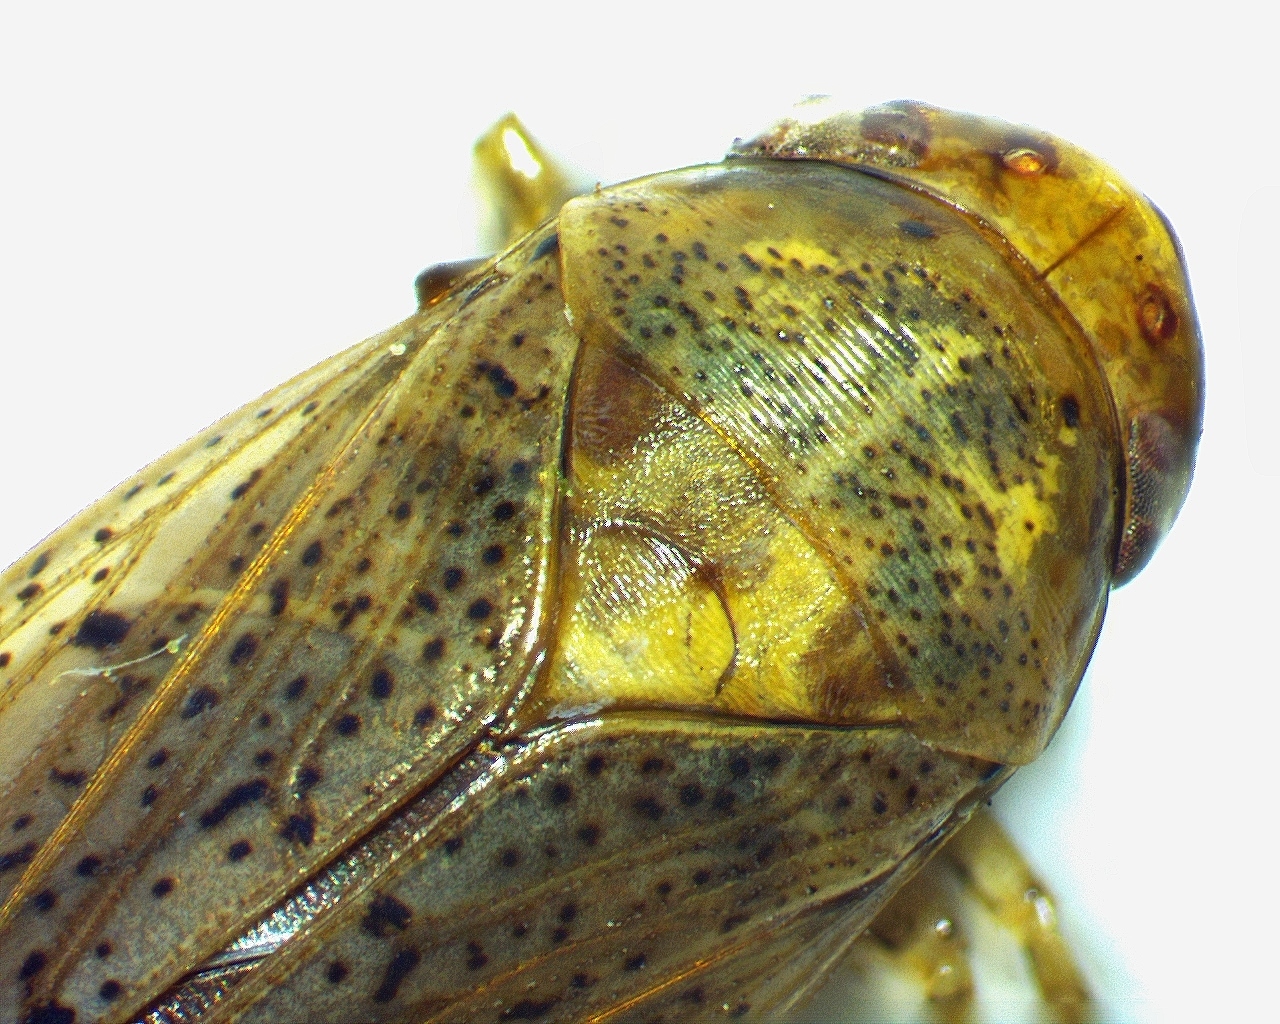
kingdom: Animalia
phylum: Arthropoda
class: Insecta
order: Hemiptera
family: Cicadellidae
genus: Ponana
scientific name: Ponana puncticollis
